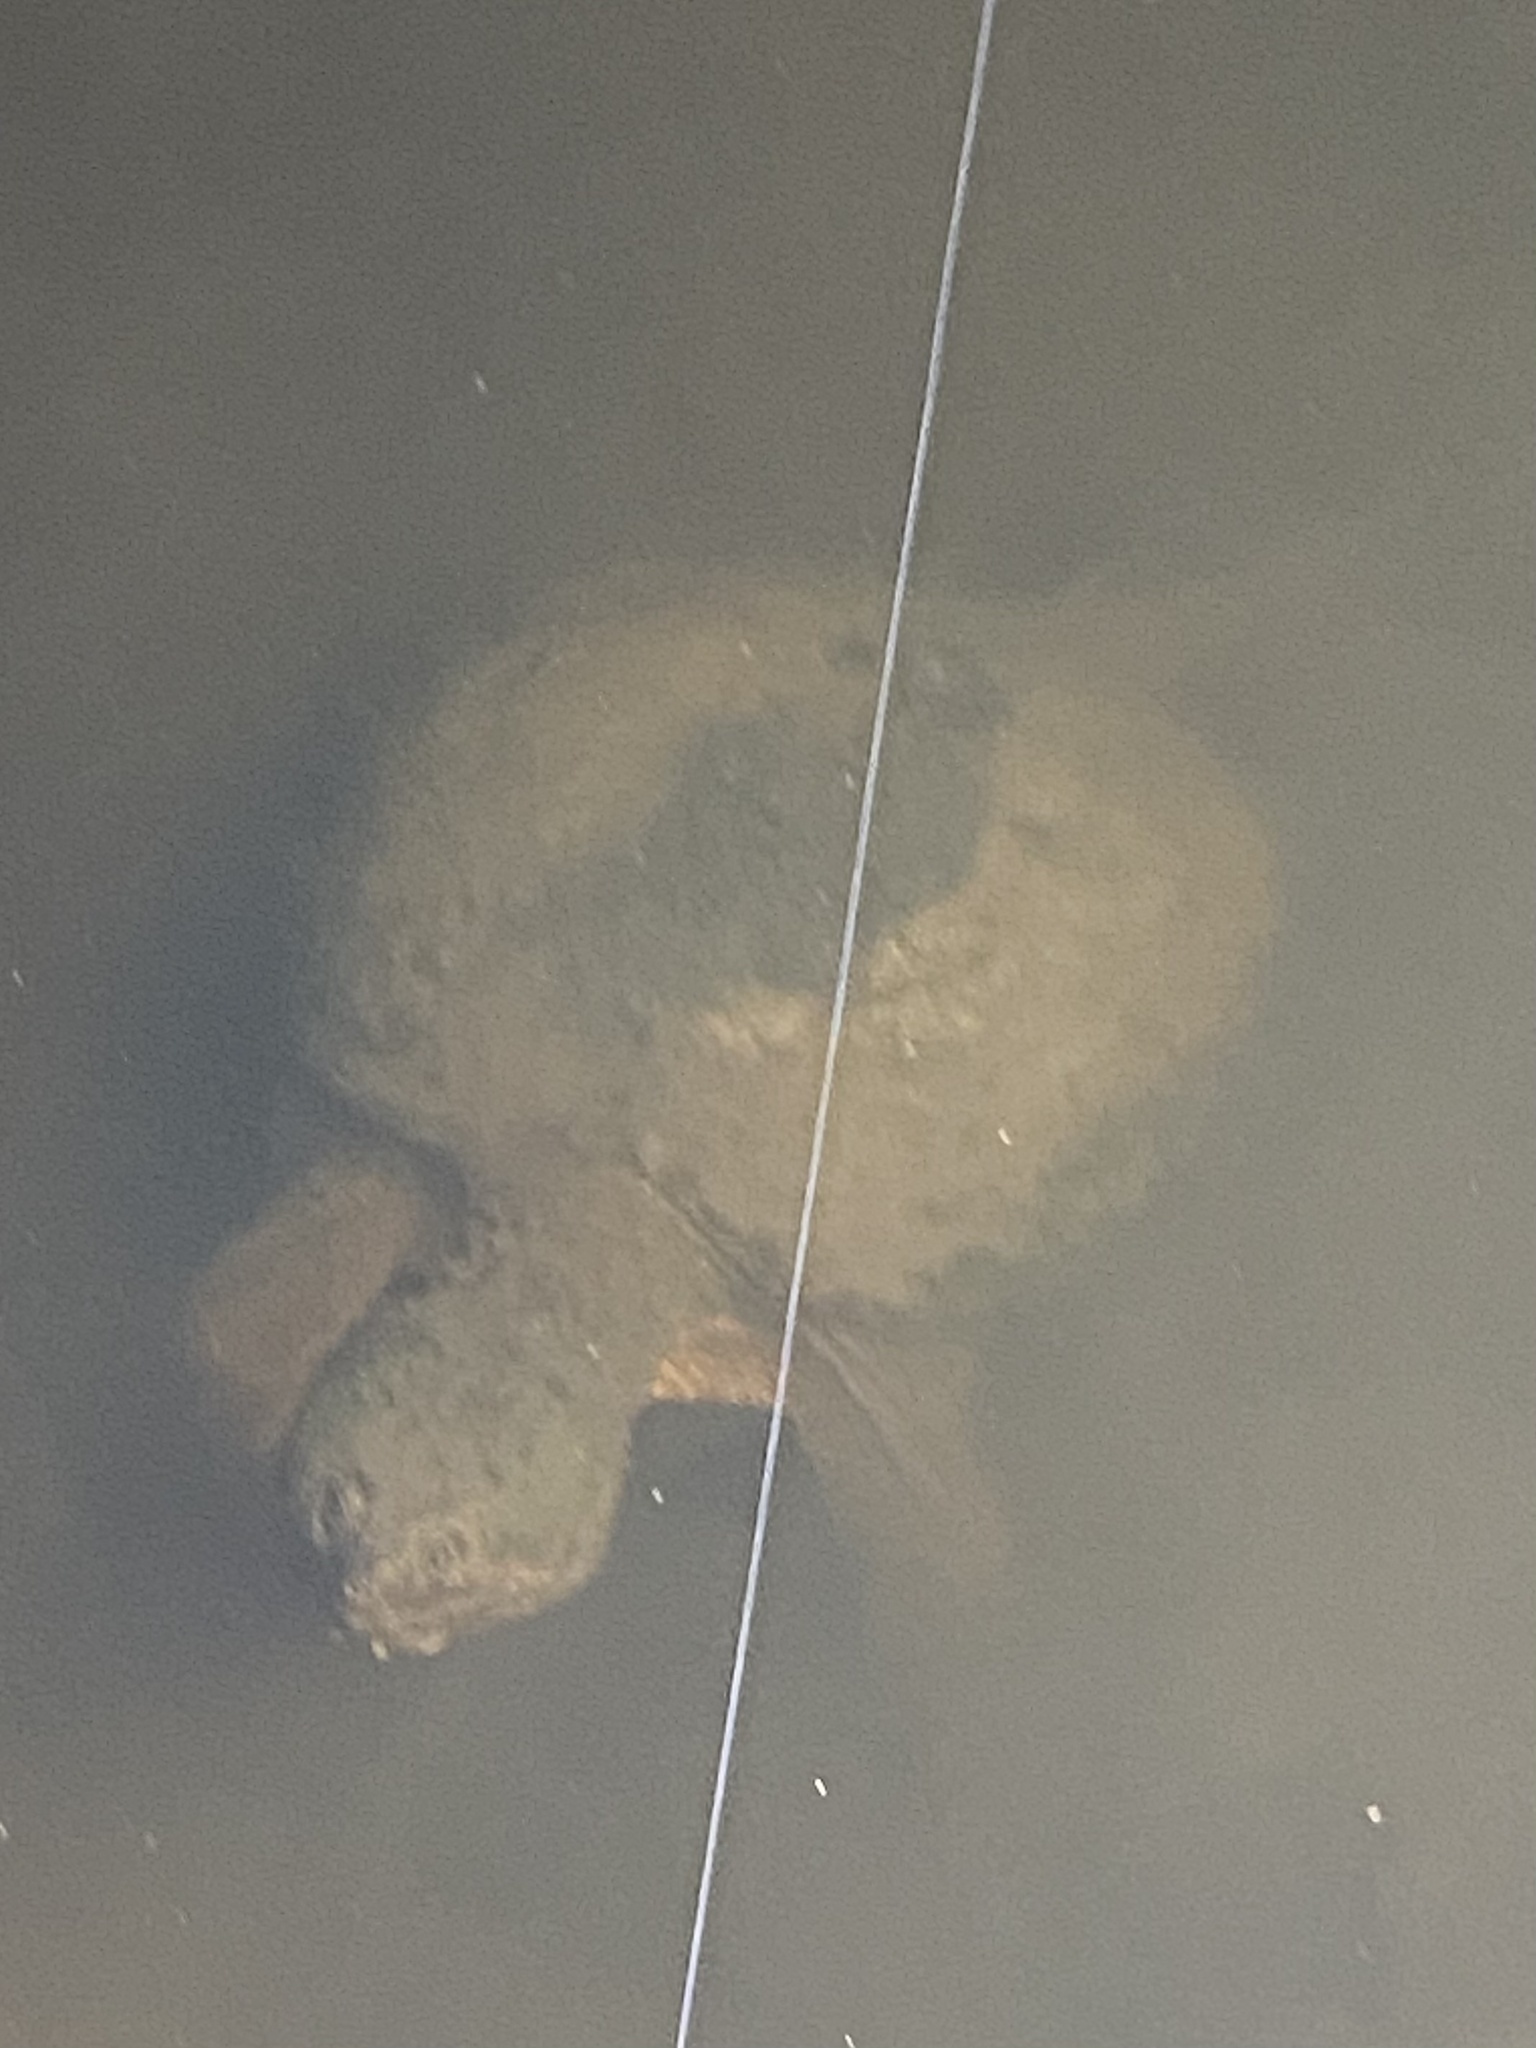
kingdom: Animalia
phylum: Chordata
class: Testudines
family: Chelydridae
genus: Chelydra
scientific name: Chelydra serpentina
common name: Common snapping turtle
